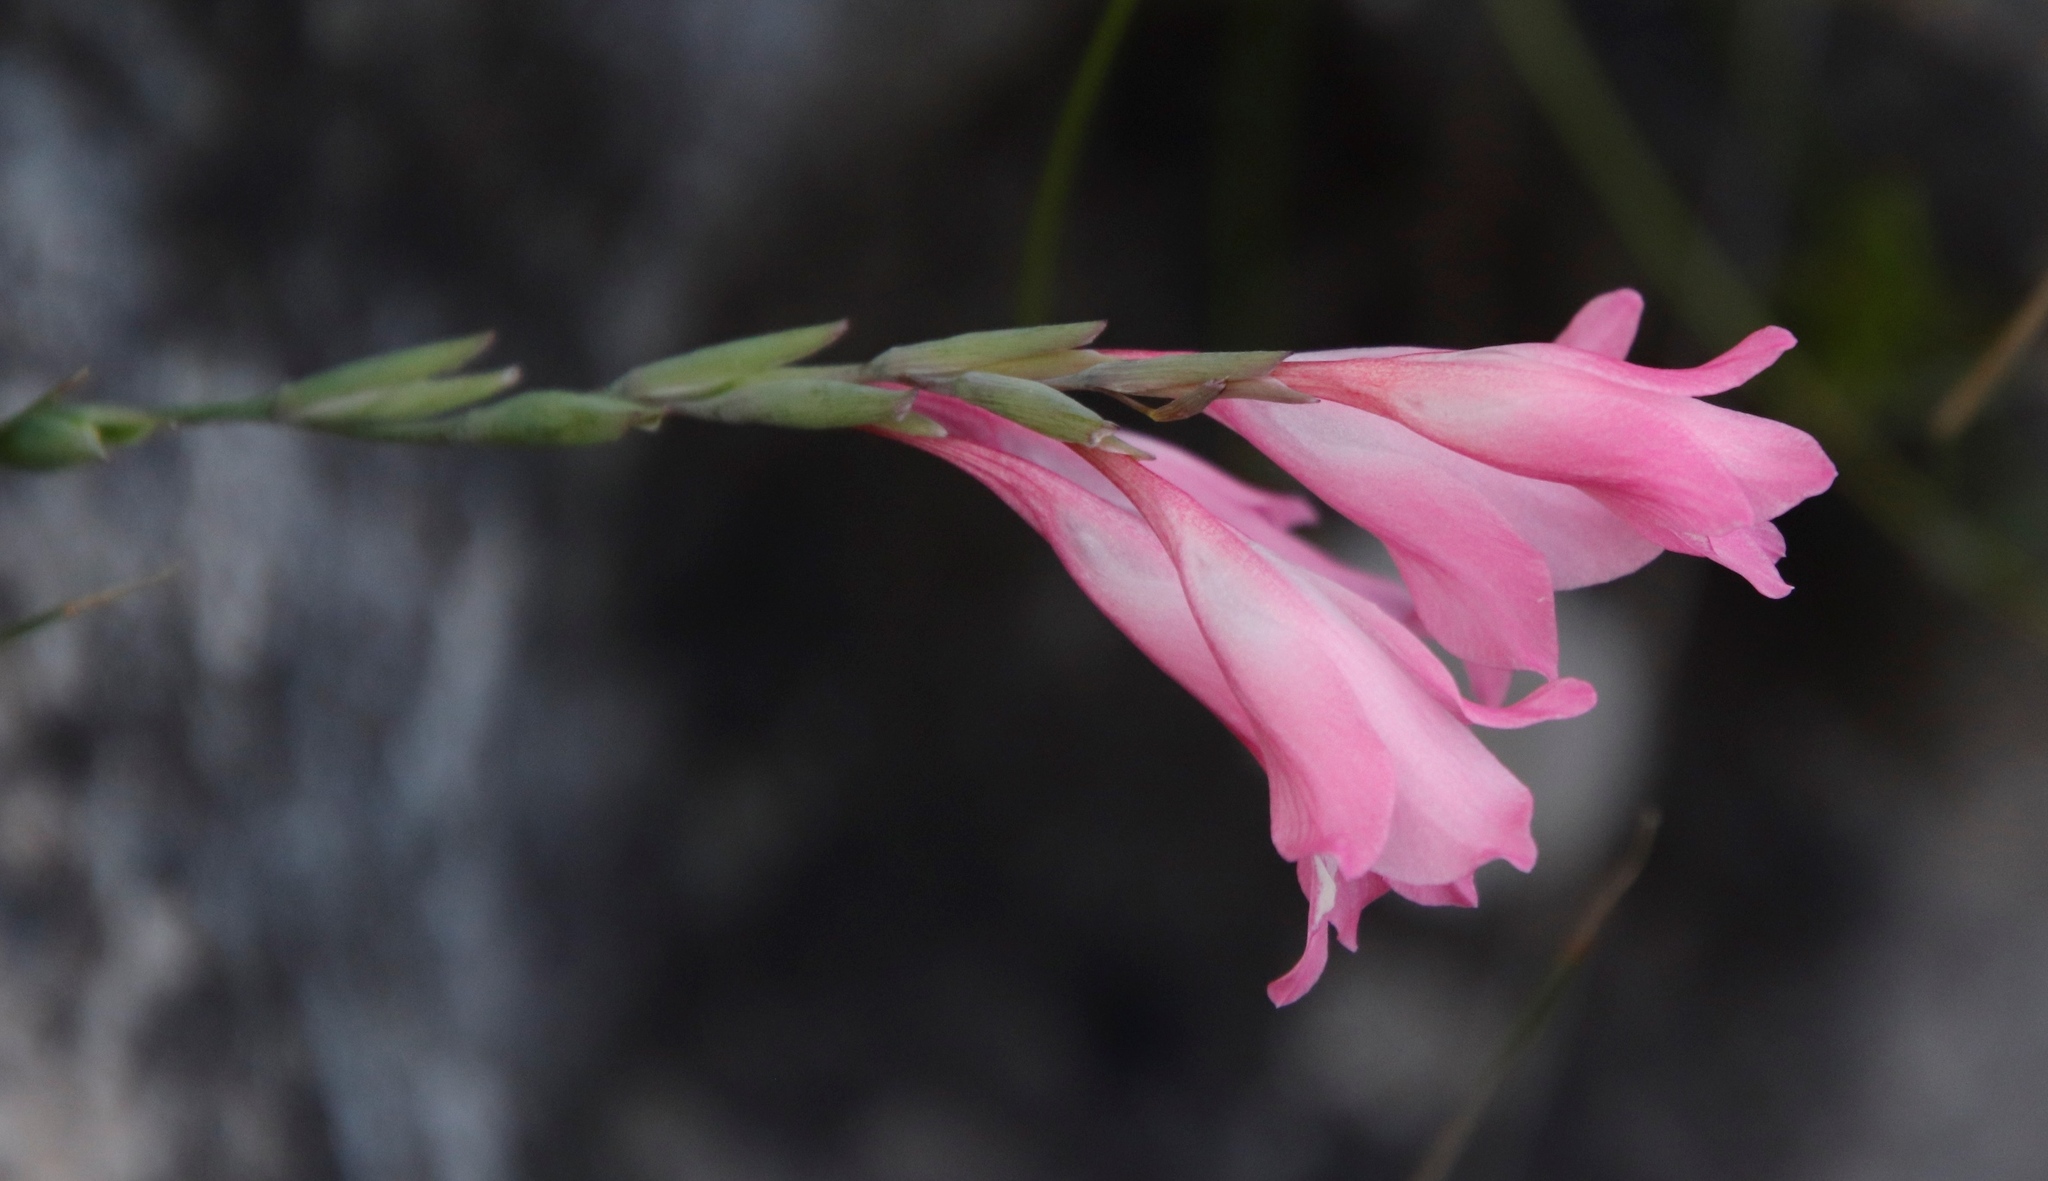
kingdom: Plantae
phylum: Tracheophyta
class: Liliopsida
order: Asparagales
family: Iridaceae
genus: Gladiolus
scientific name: Gladiolus brevifolius
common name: March pypie
